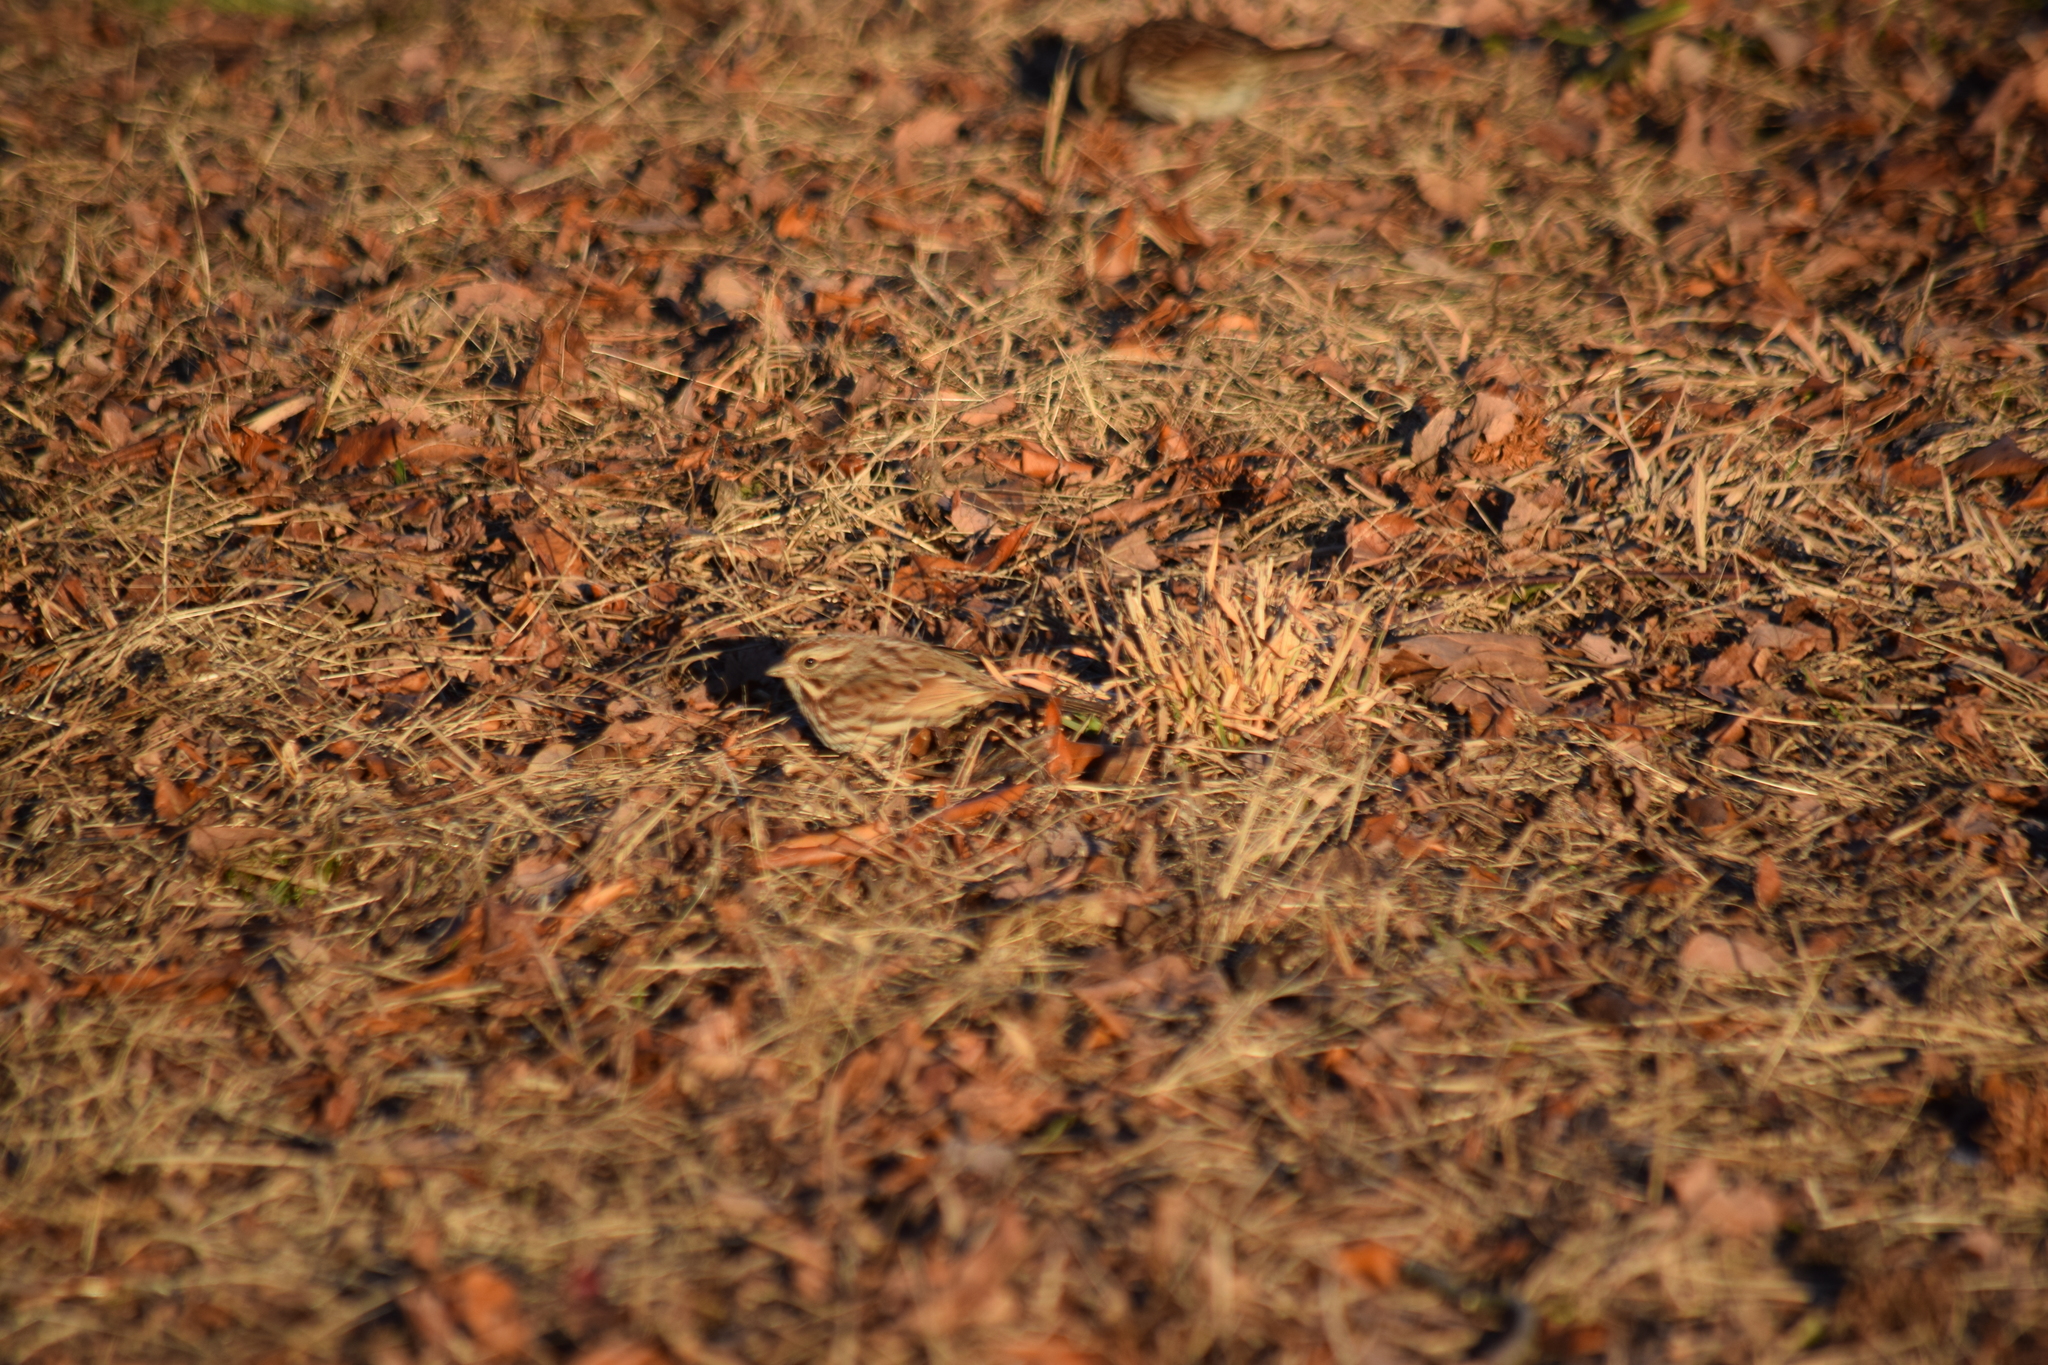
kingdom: Animalia
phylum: Chordata
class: Aves
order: Passeriformes
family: Passerellidae
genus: Melospiza
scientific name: Melospiza melodia
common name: Song sparrow
